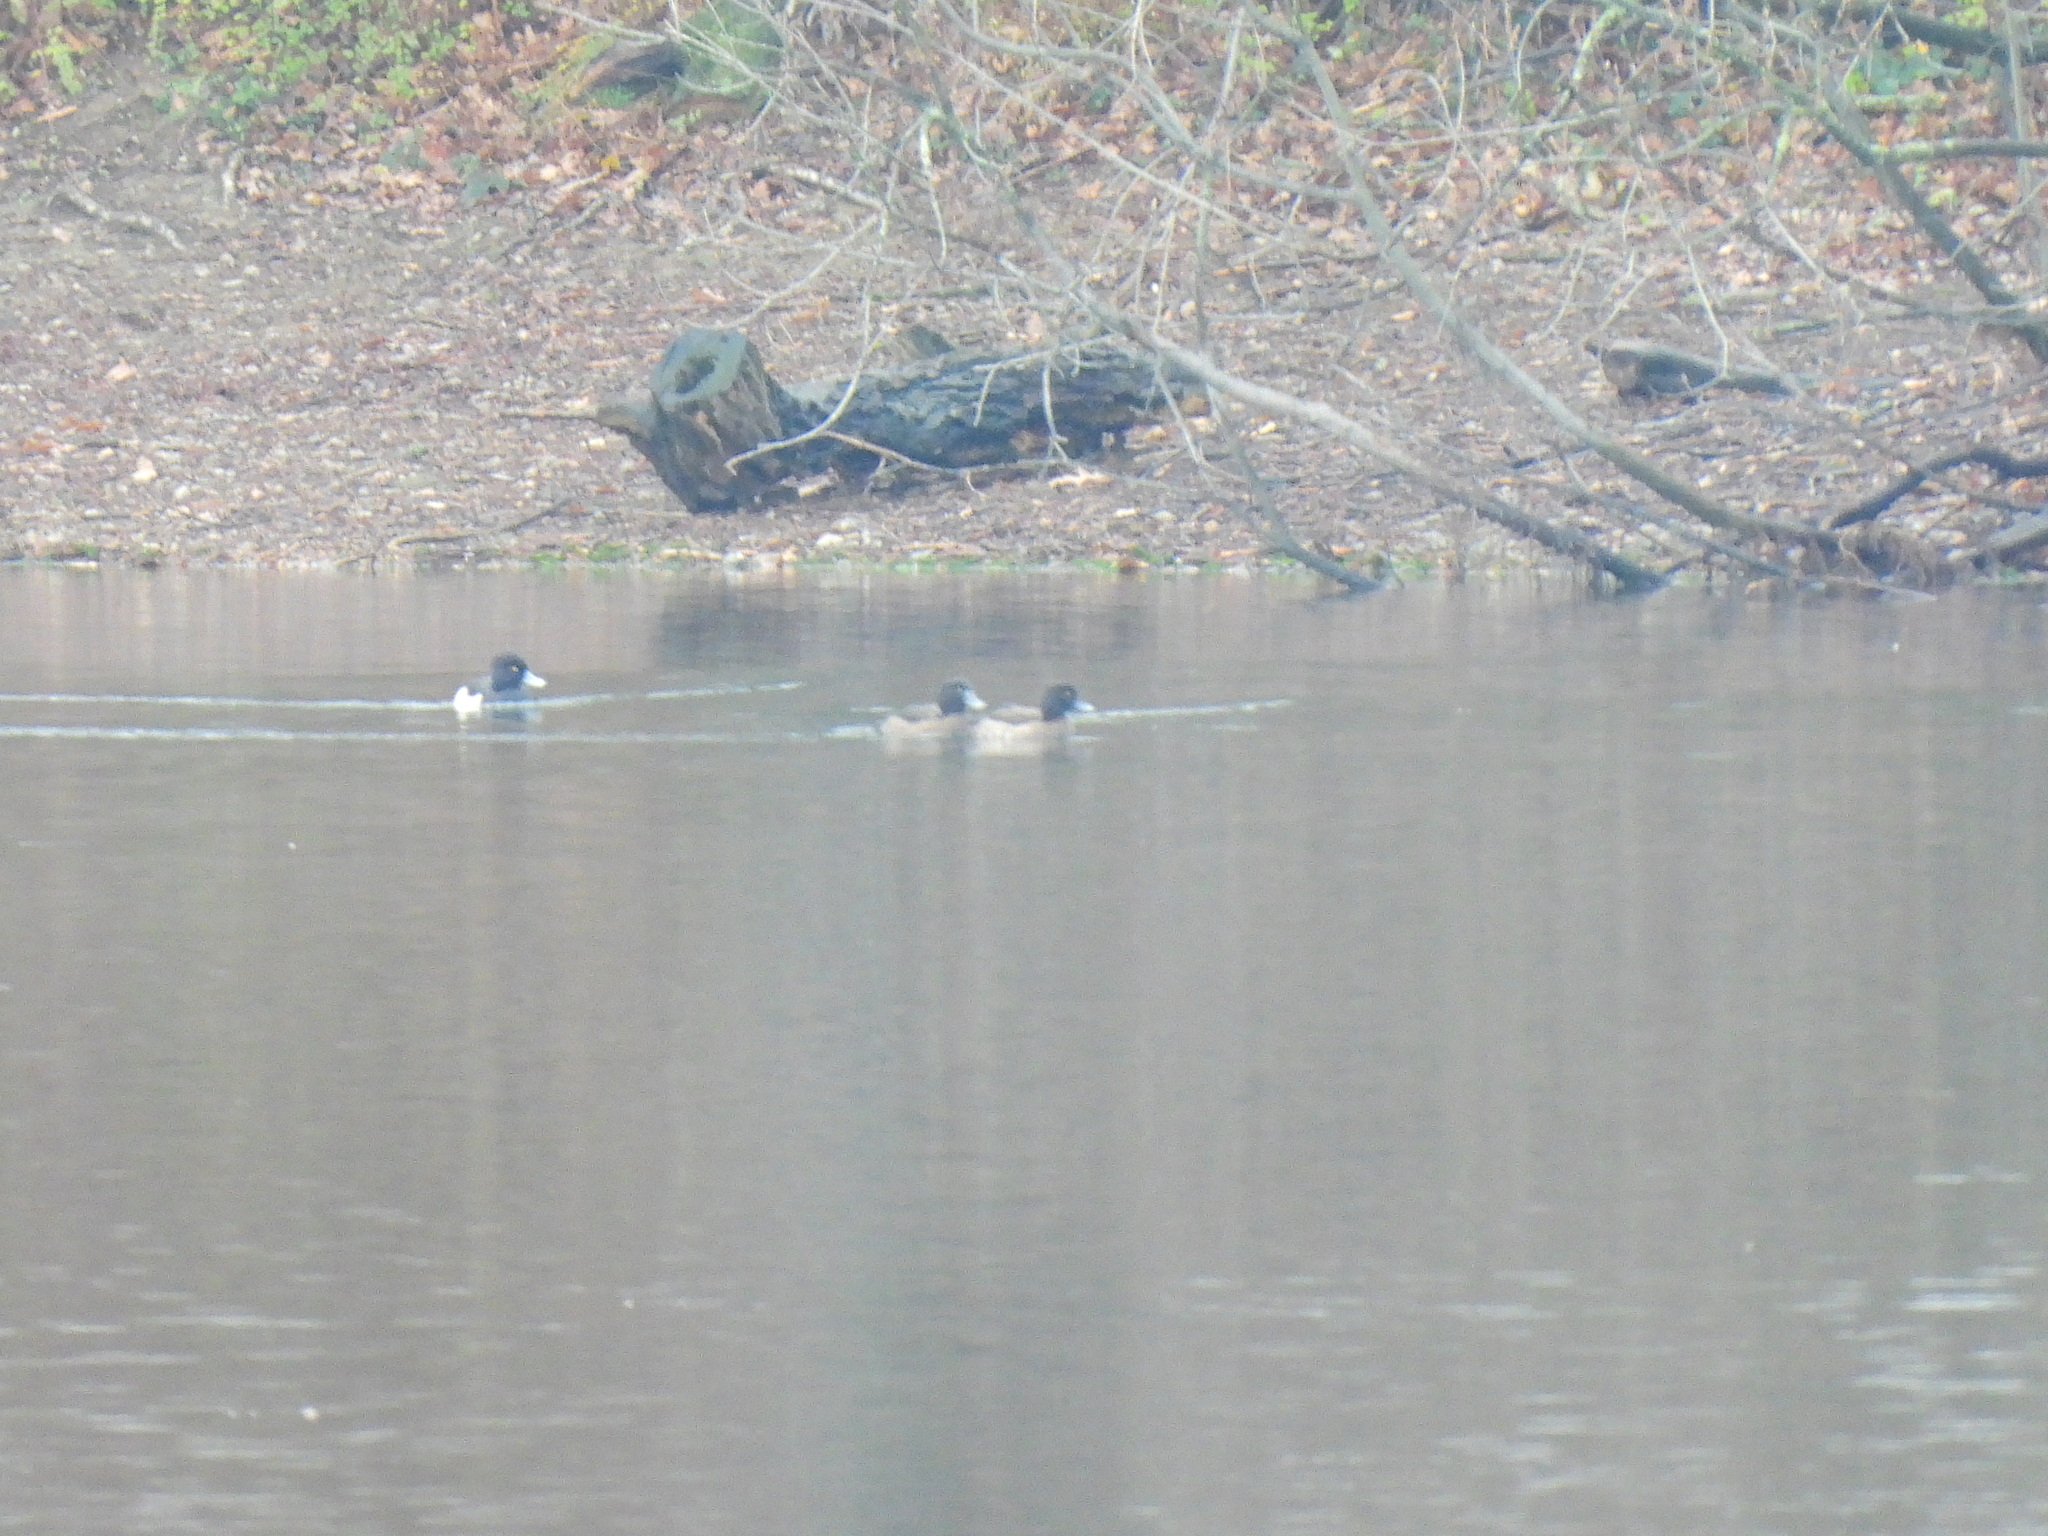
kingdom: Animalia
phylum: Chordata
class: Aves
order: Anseriformes
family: Anatidae
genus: Aythya
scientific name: Aythya fuligula
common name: Tufted duck
